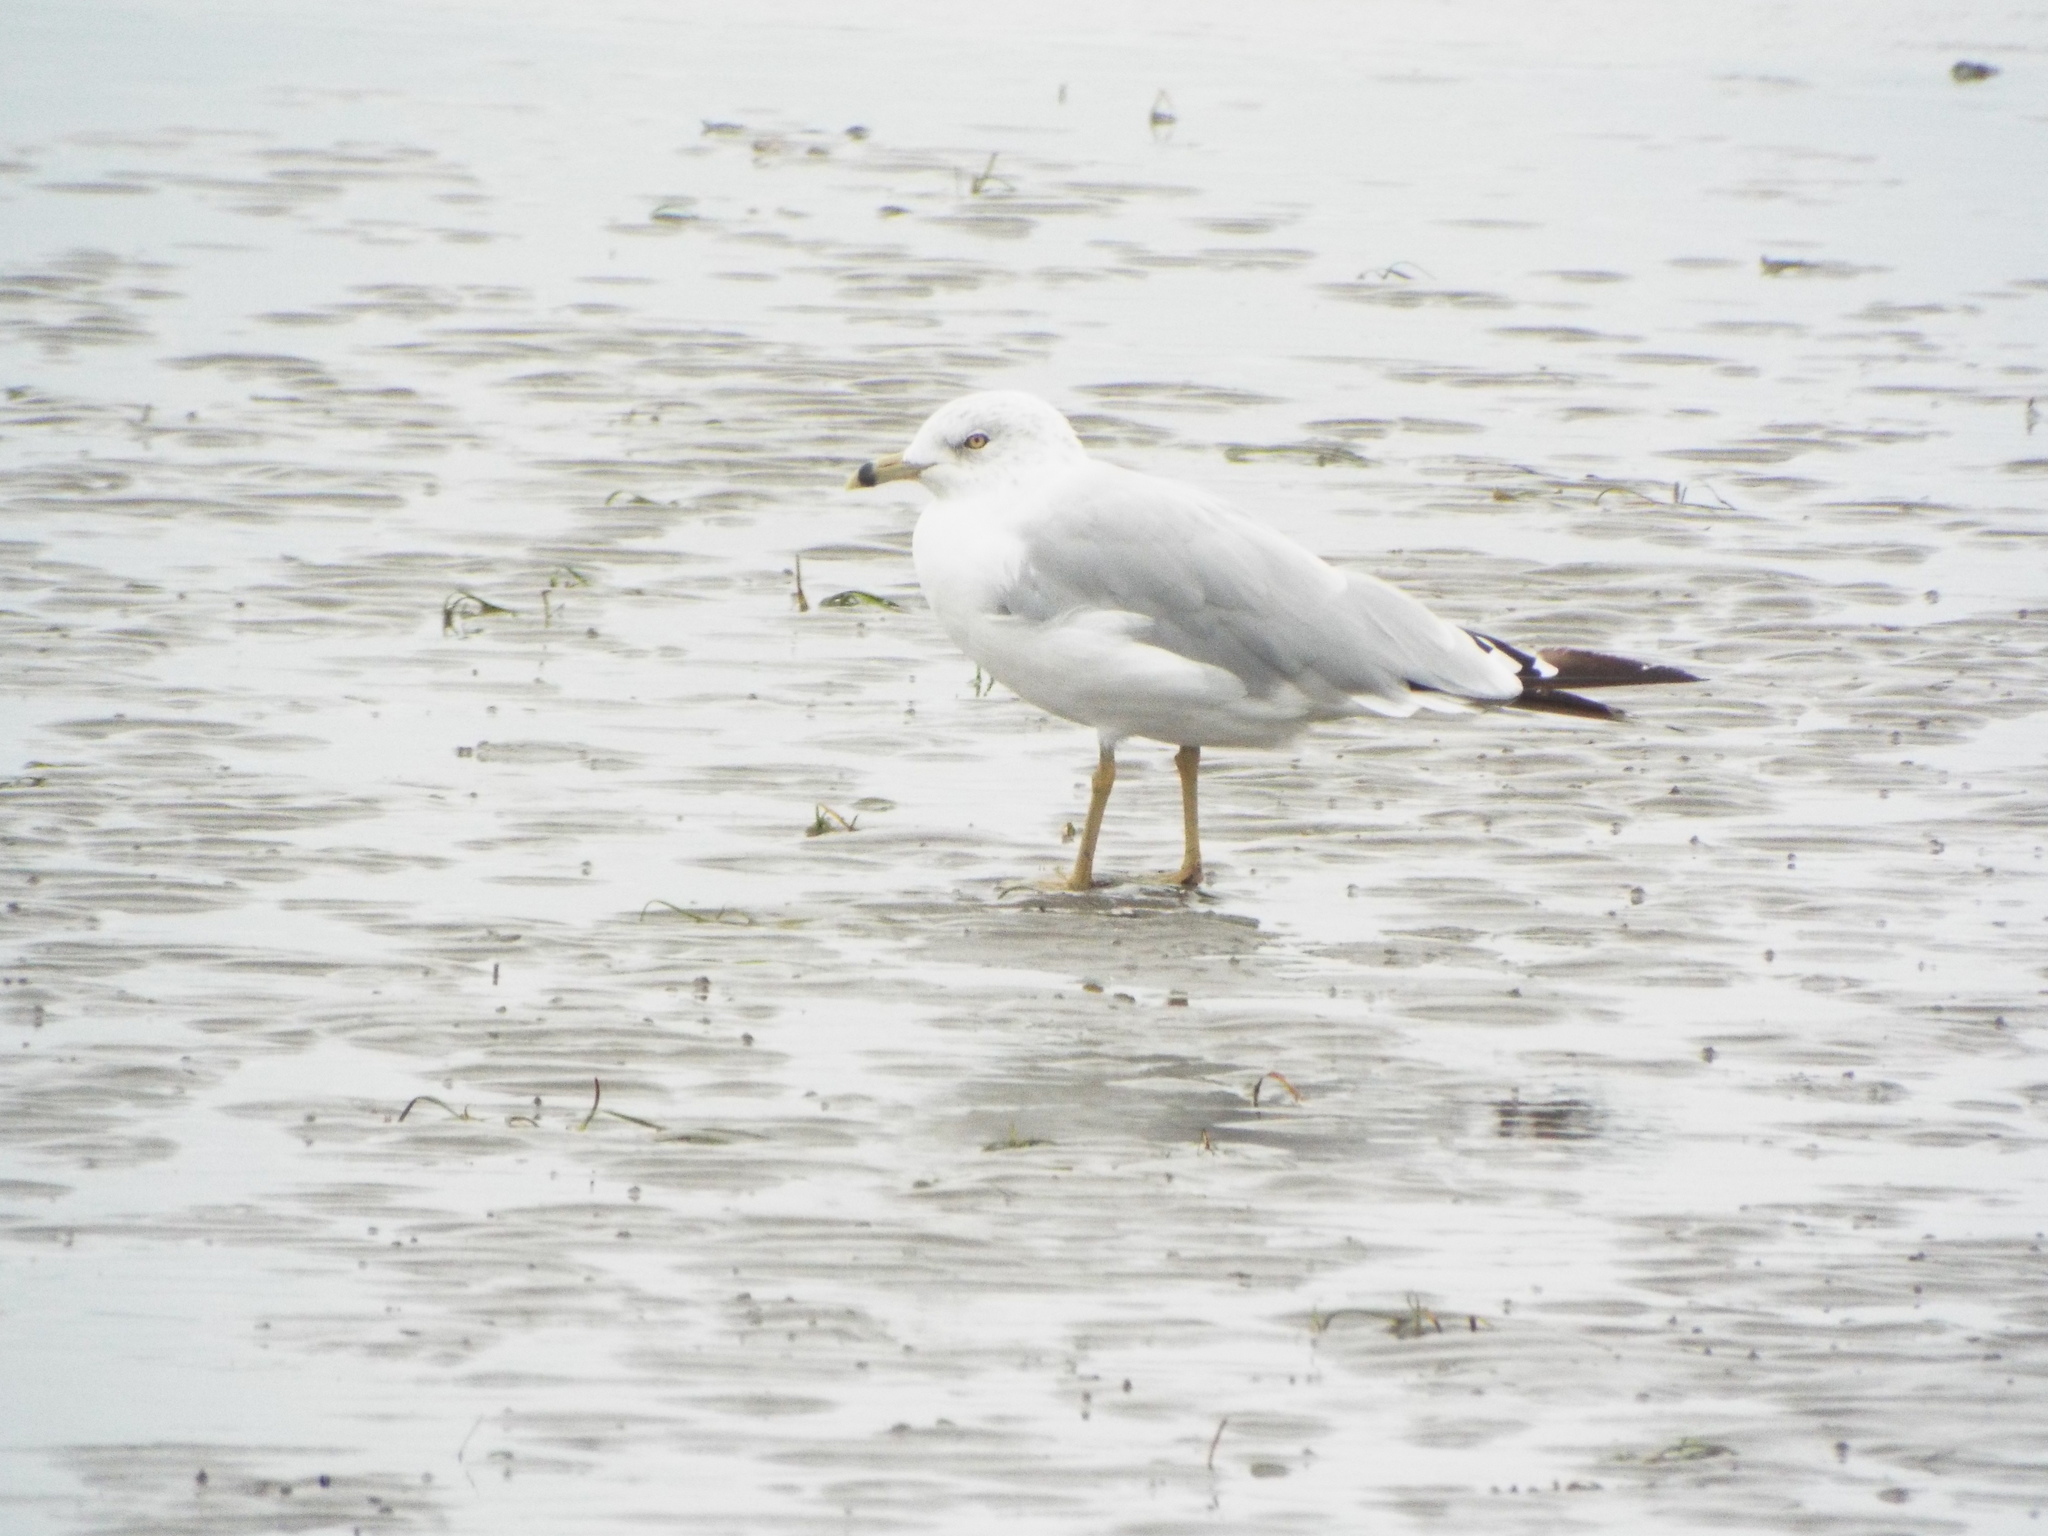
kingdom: Animalia
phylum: Chordata
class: Aves
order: Charadriiformes
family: Laridae
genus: Larus
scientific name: Larus delawarensis
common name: Ring-billed gull
